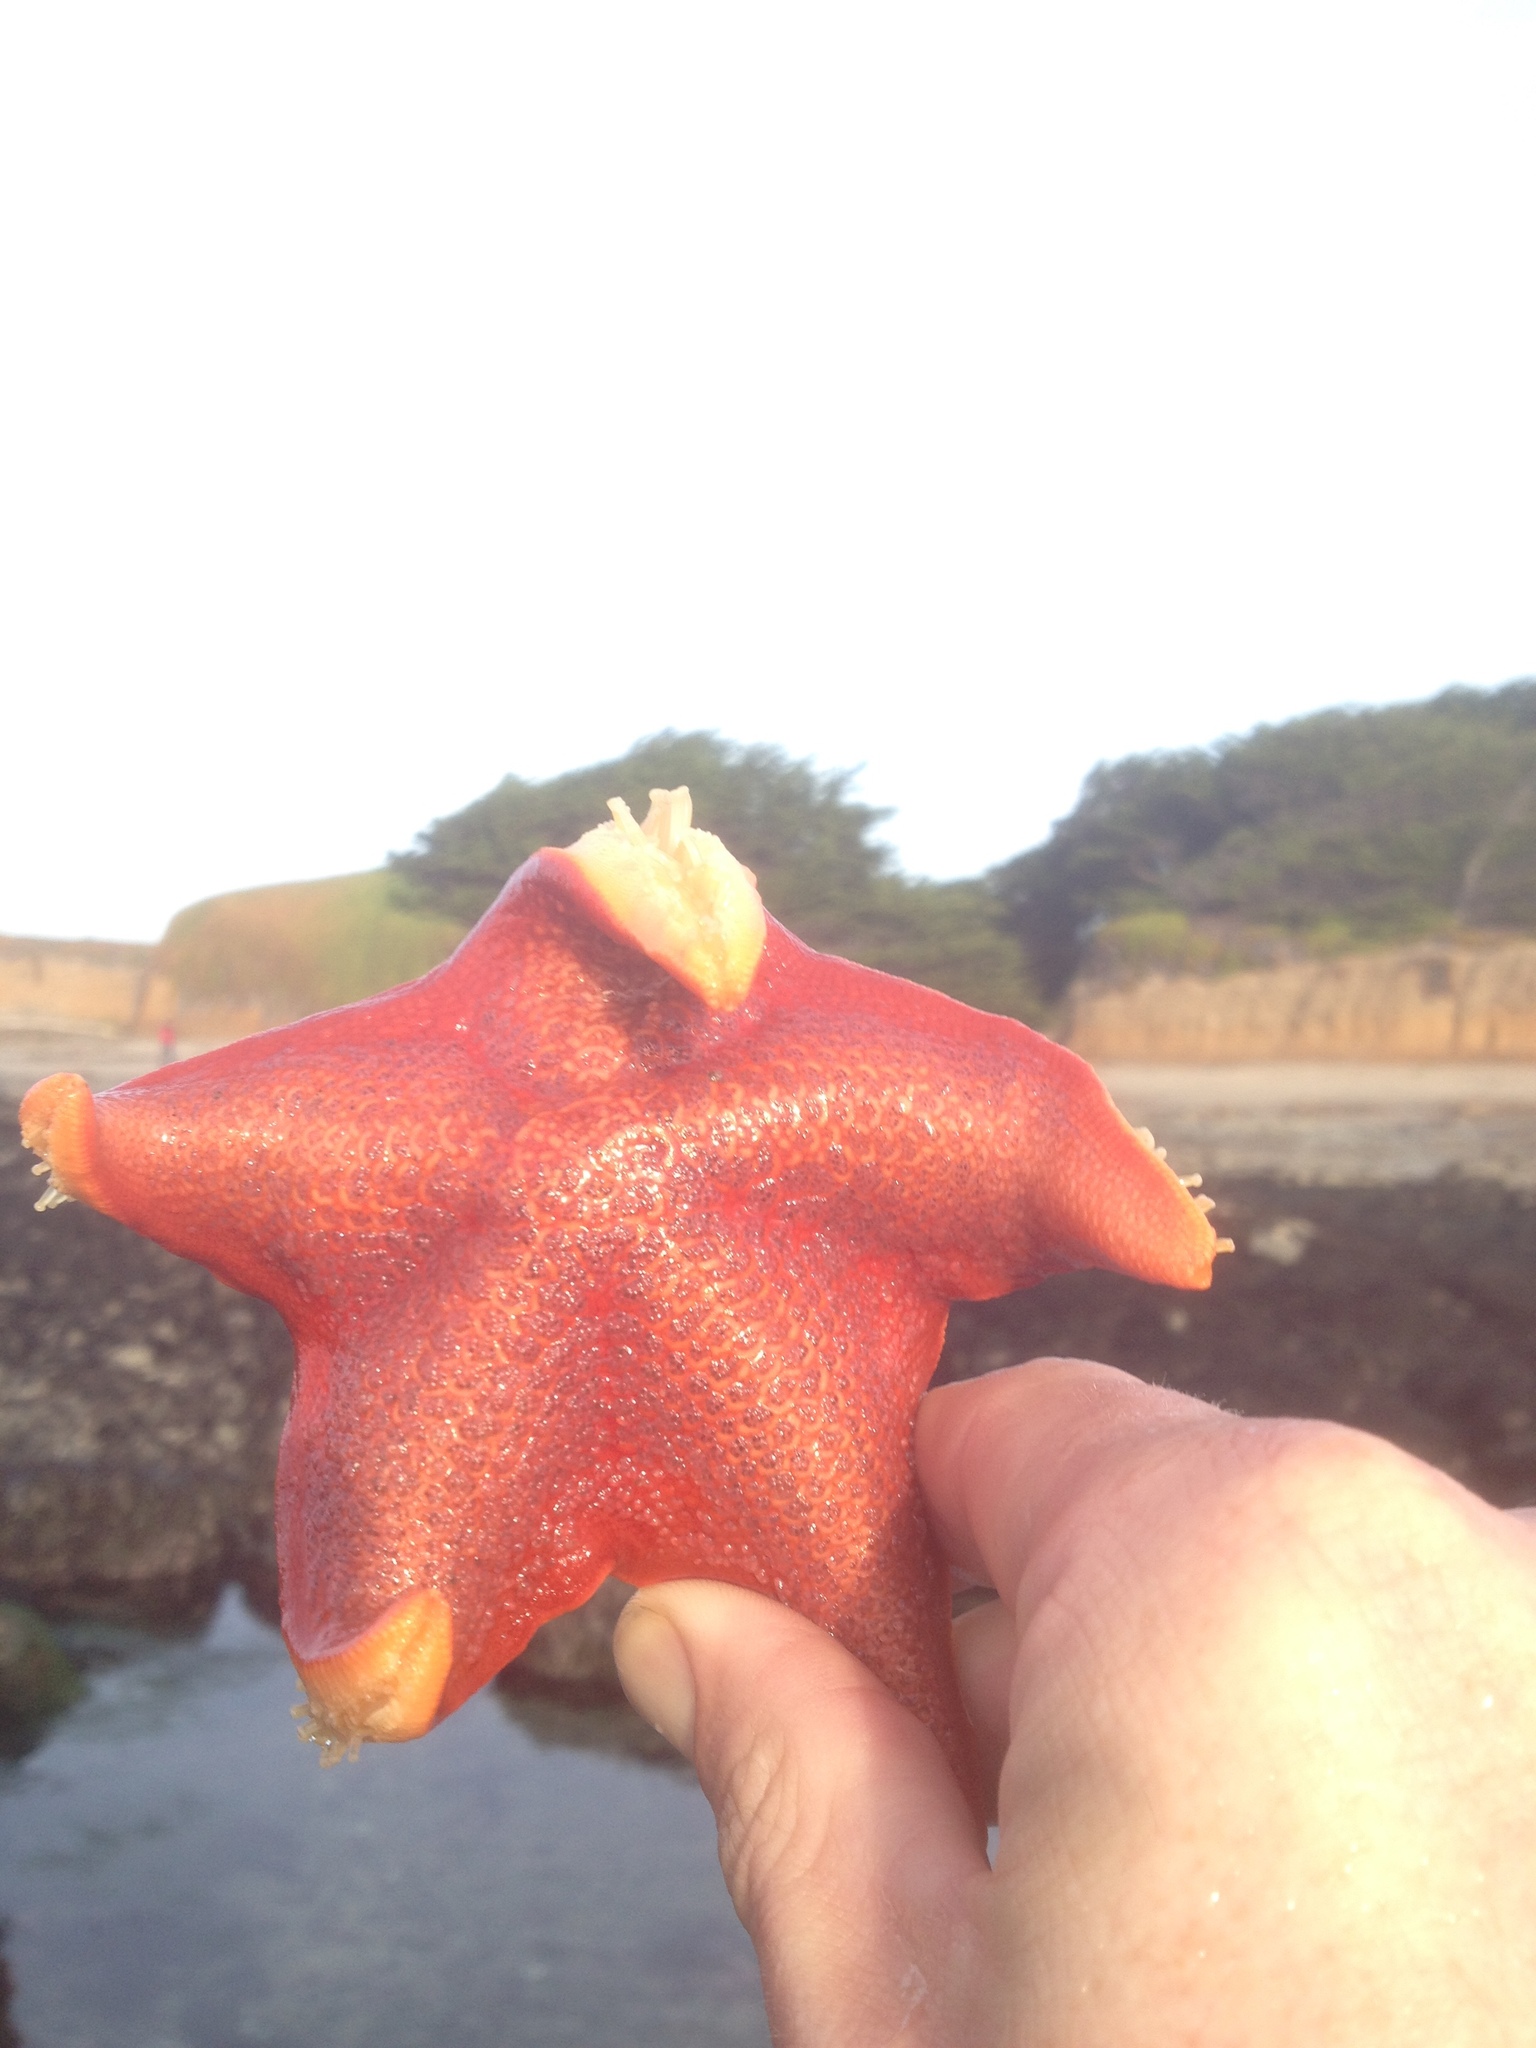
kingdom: Animalia
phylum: Echinodermata
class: Asteroidea
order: Valvatida
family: Asterinidae
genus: Patiria
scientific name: Patiria miniata
